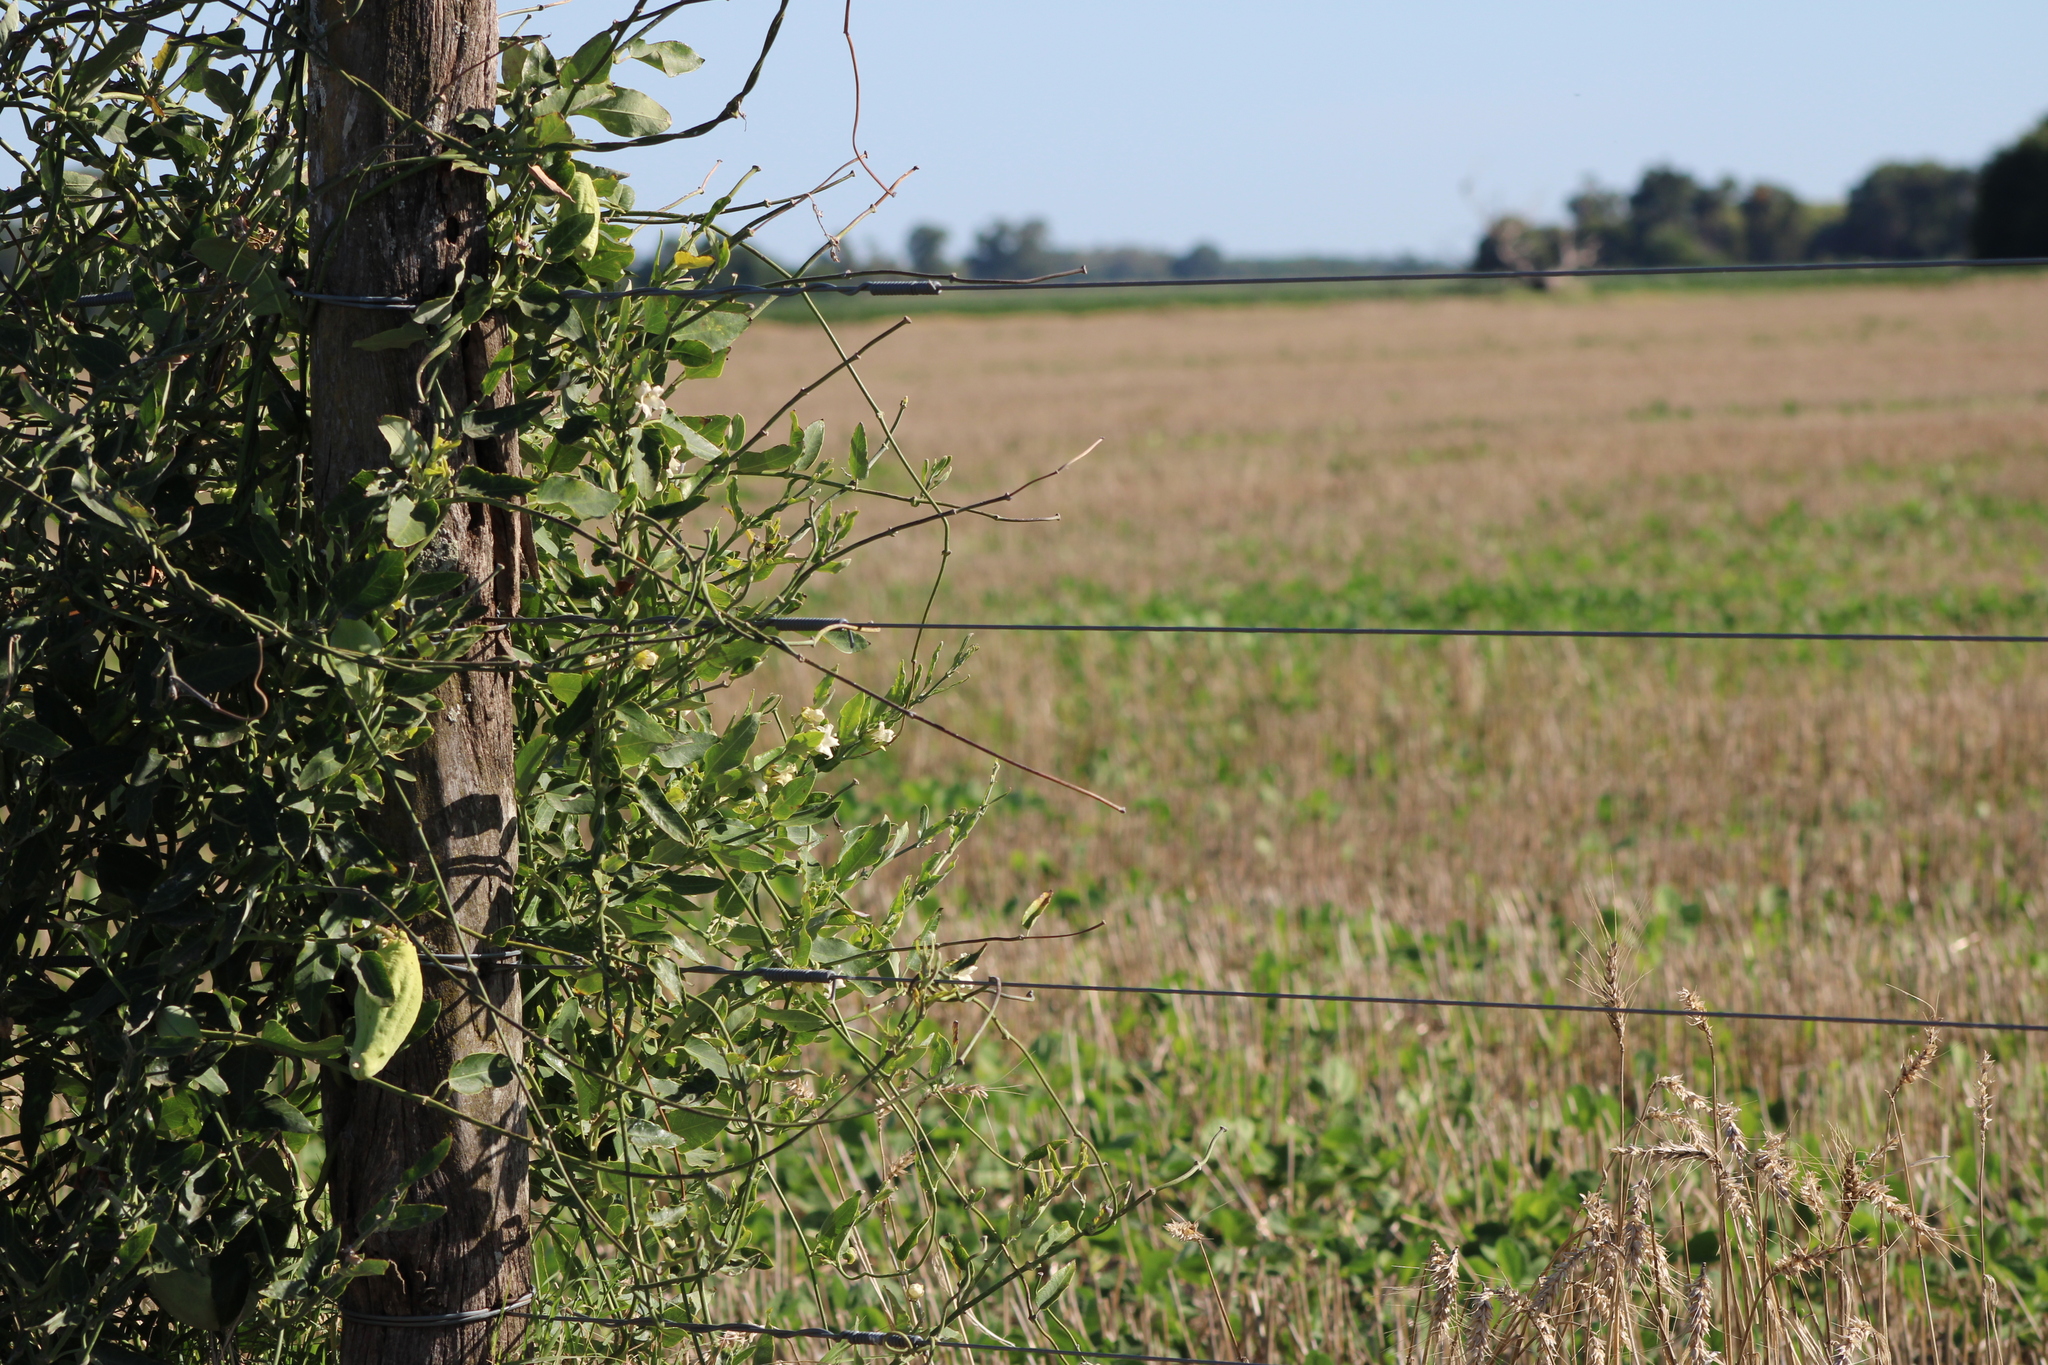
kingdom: Plantae
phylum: Tracheophyta
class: Magnoliopsida
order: Gentianales
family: Apocynaceae
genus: Araujia
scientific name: Araujia sericifera
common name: White bladderflower
